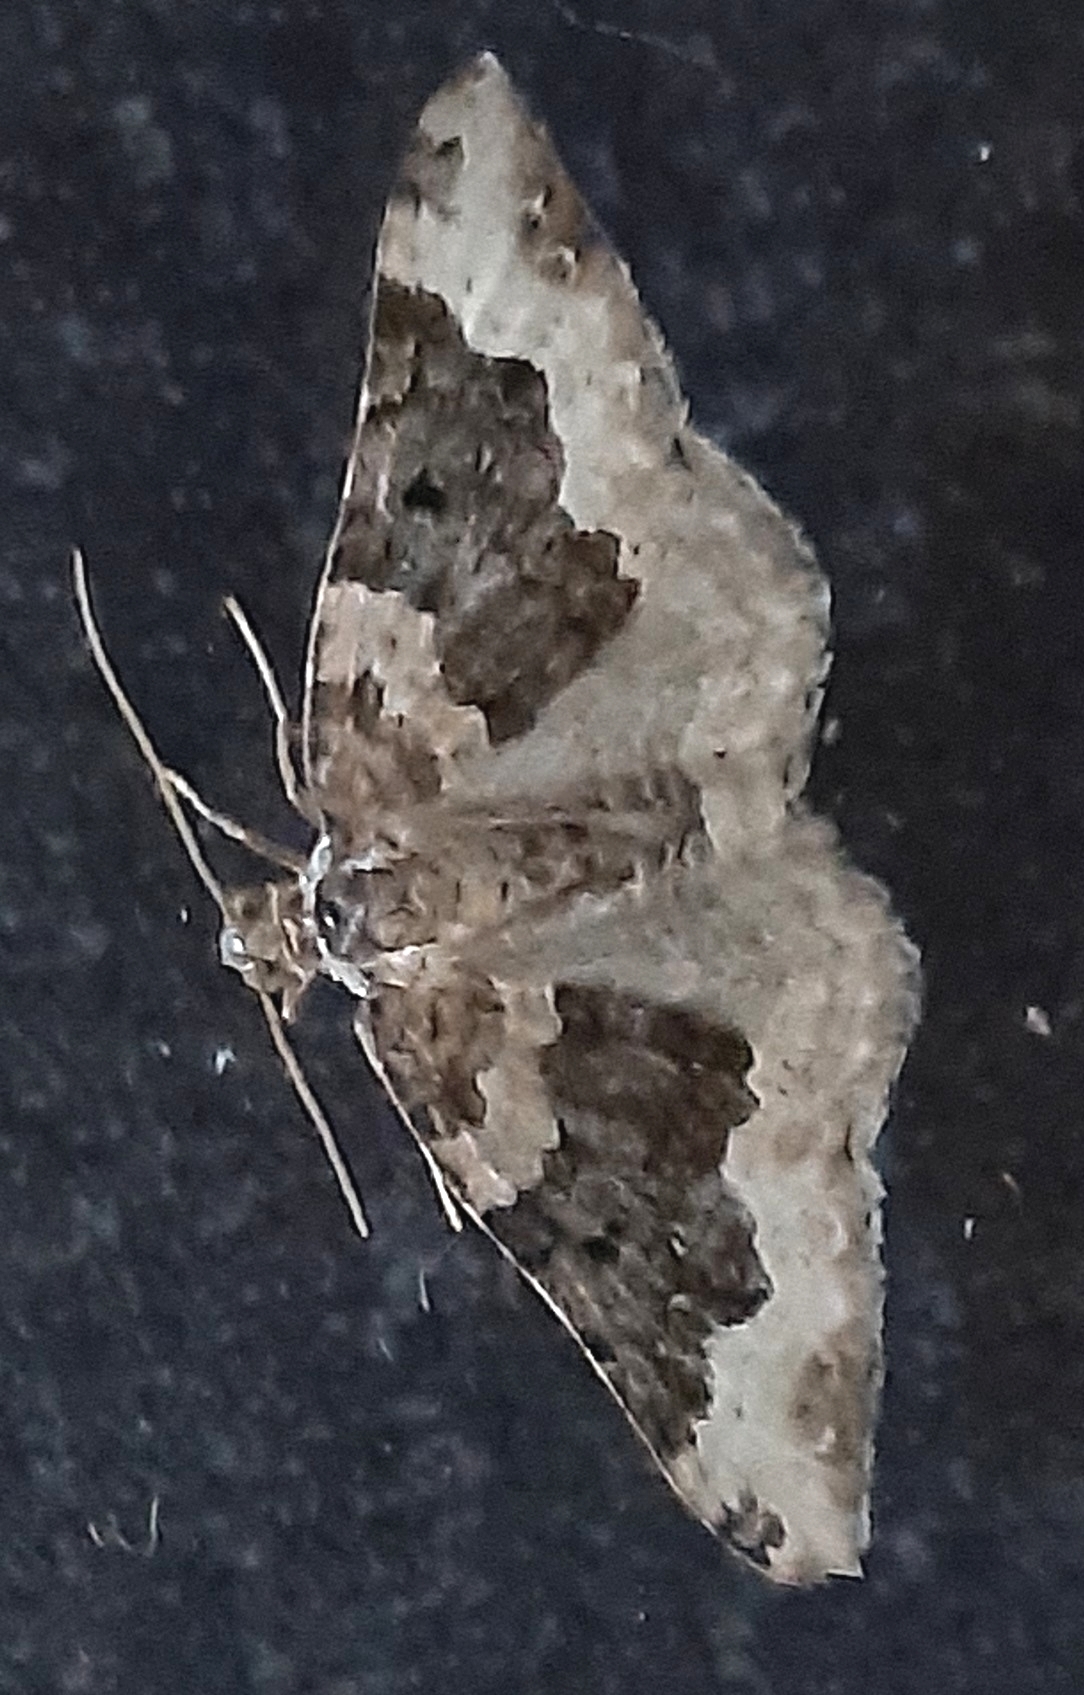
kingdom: Animalia
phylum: Arthropoda
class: Insecta
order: Lepidoptera
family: Geometridae
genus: Epirrhoe
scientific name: Epirrhoe galiata
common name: Galium carpet
